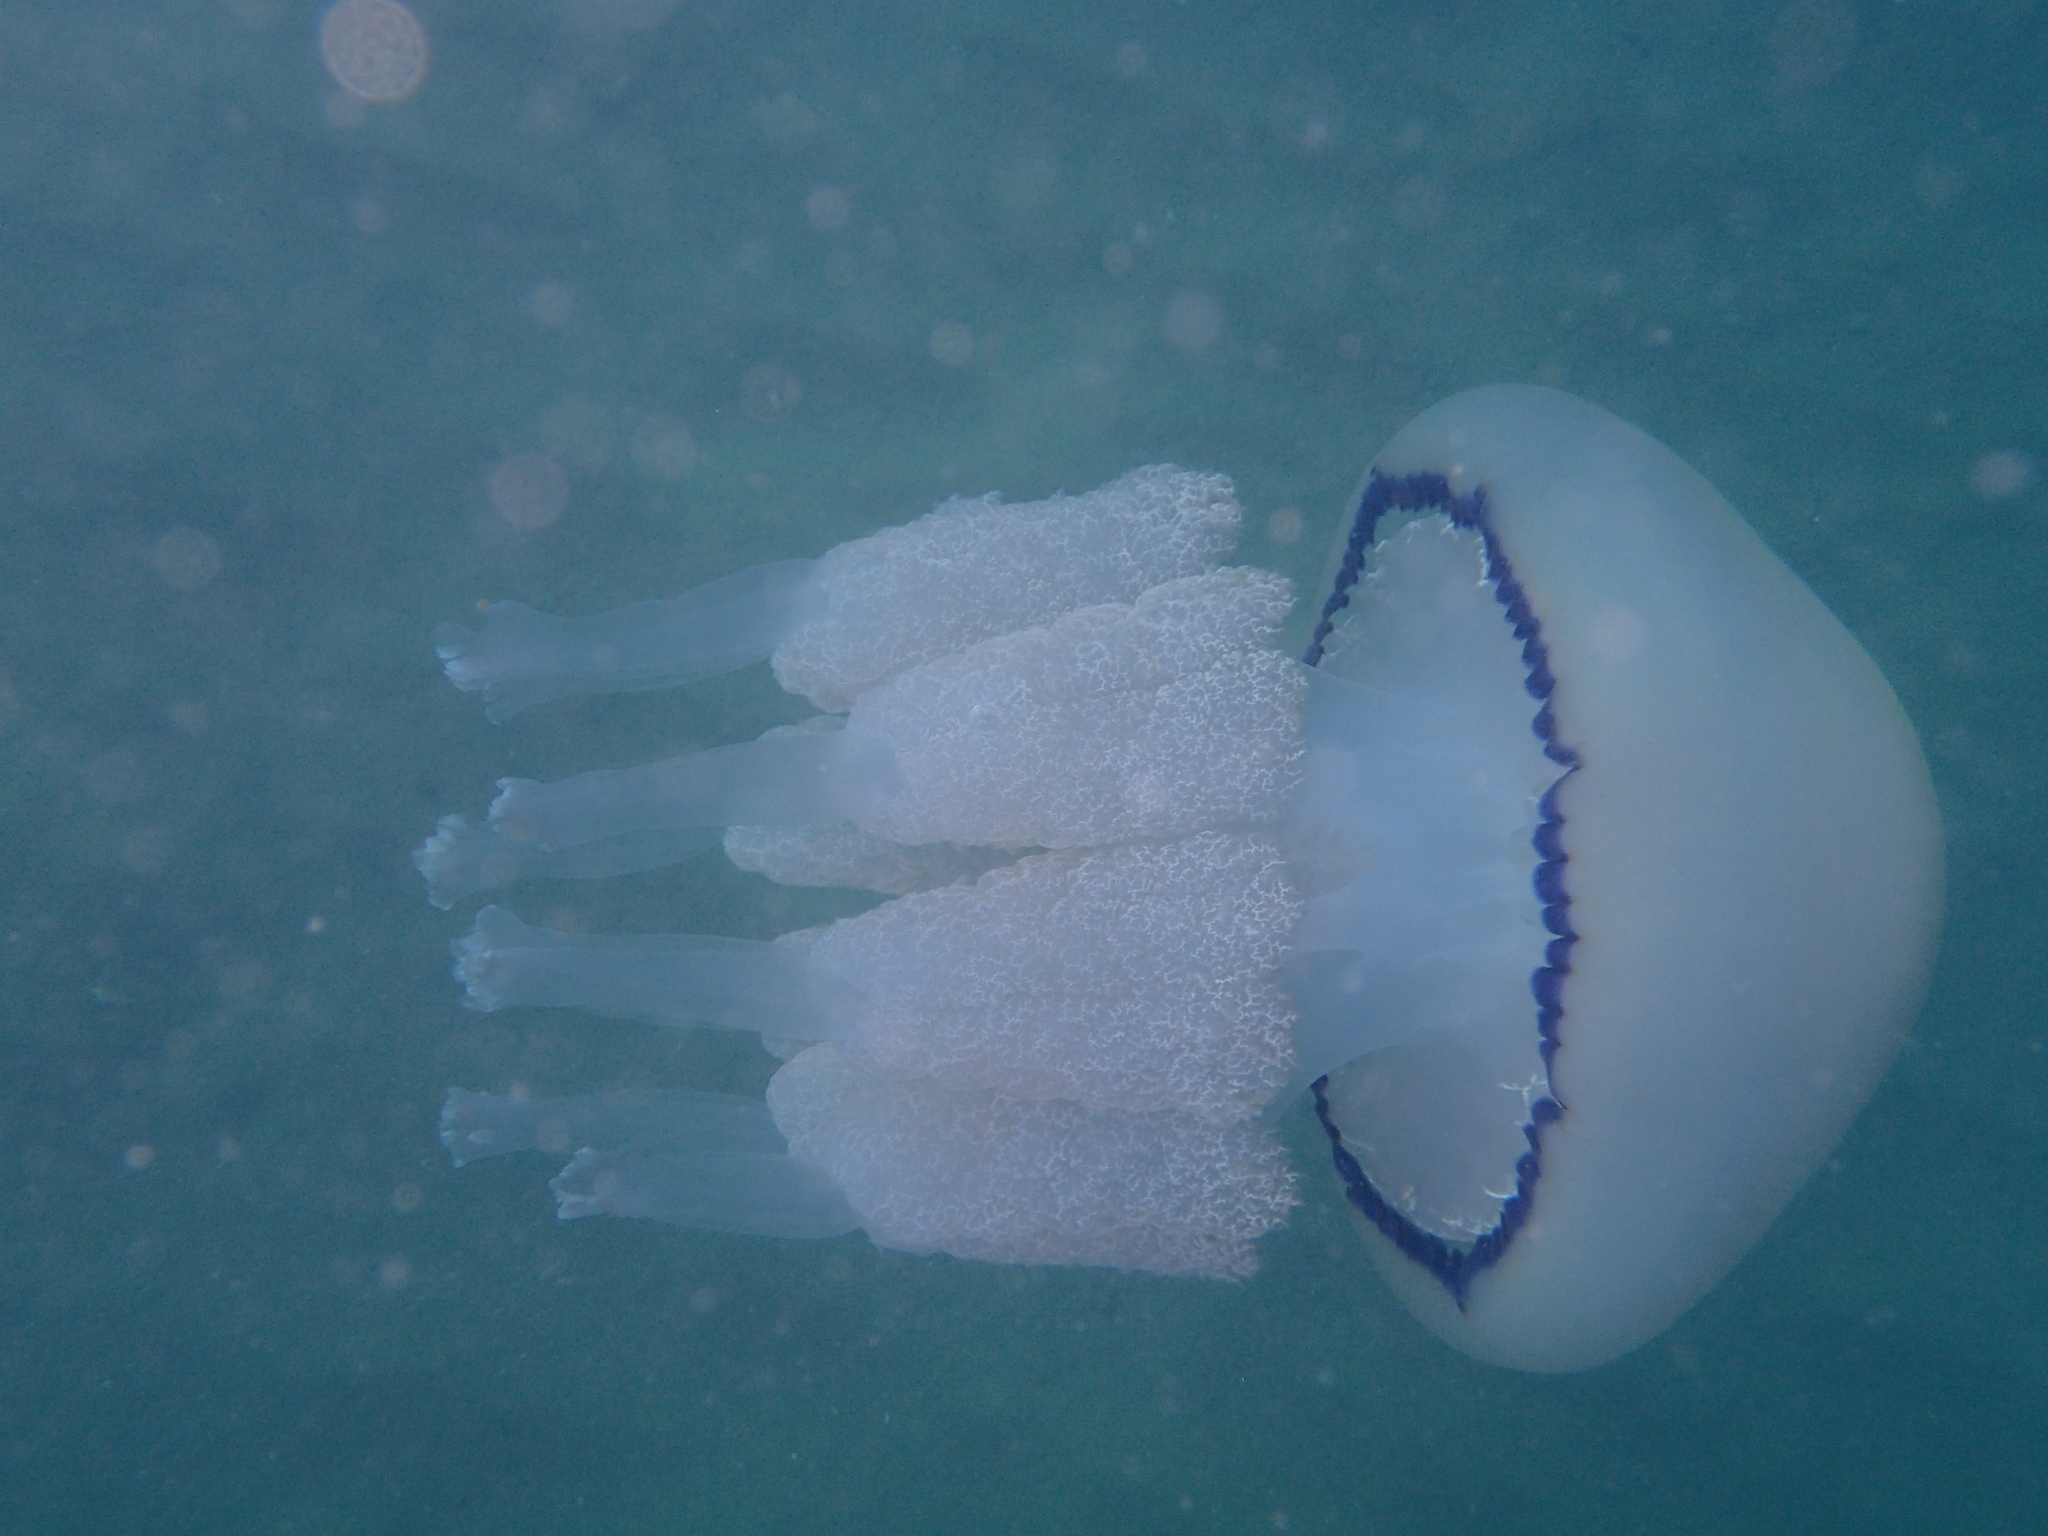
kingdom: Animalia
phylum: Cnidaria
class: Scyphozoa
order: Rhizostomeae
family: Rhizostomatidae
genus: Rhizostoma
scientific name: Rhizostoma pulmo
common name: Barrel jellyfish
